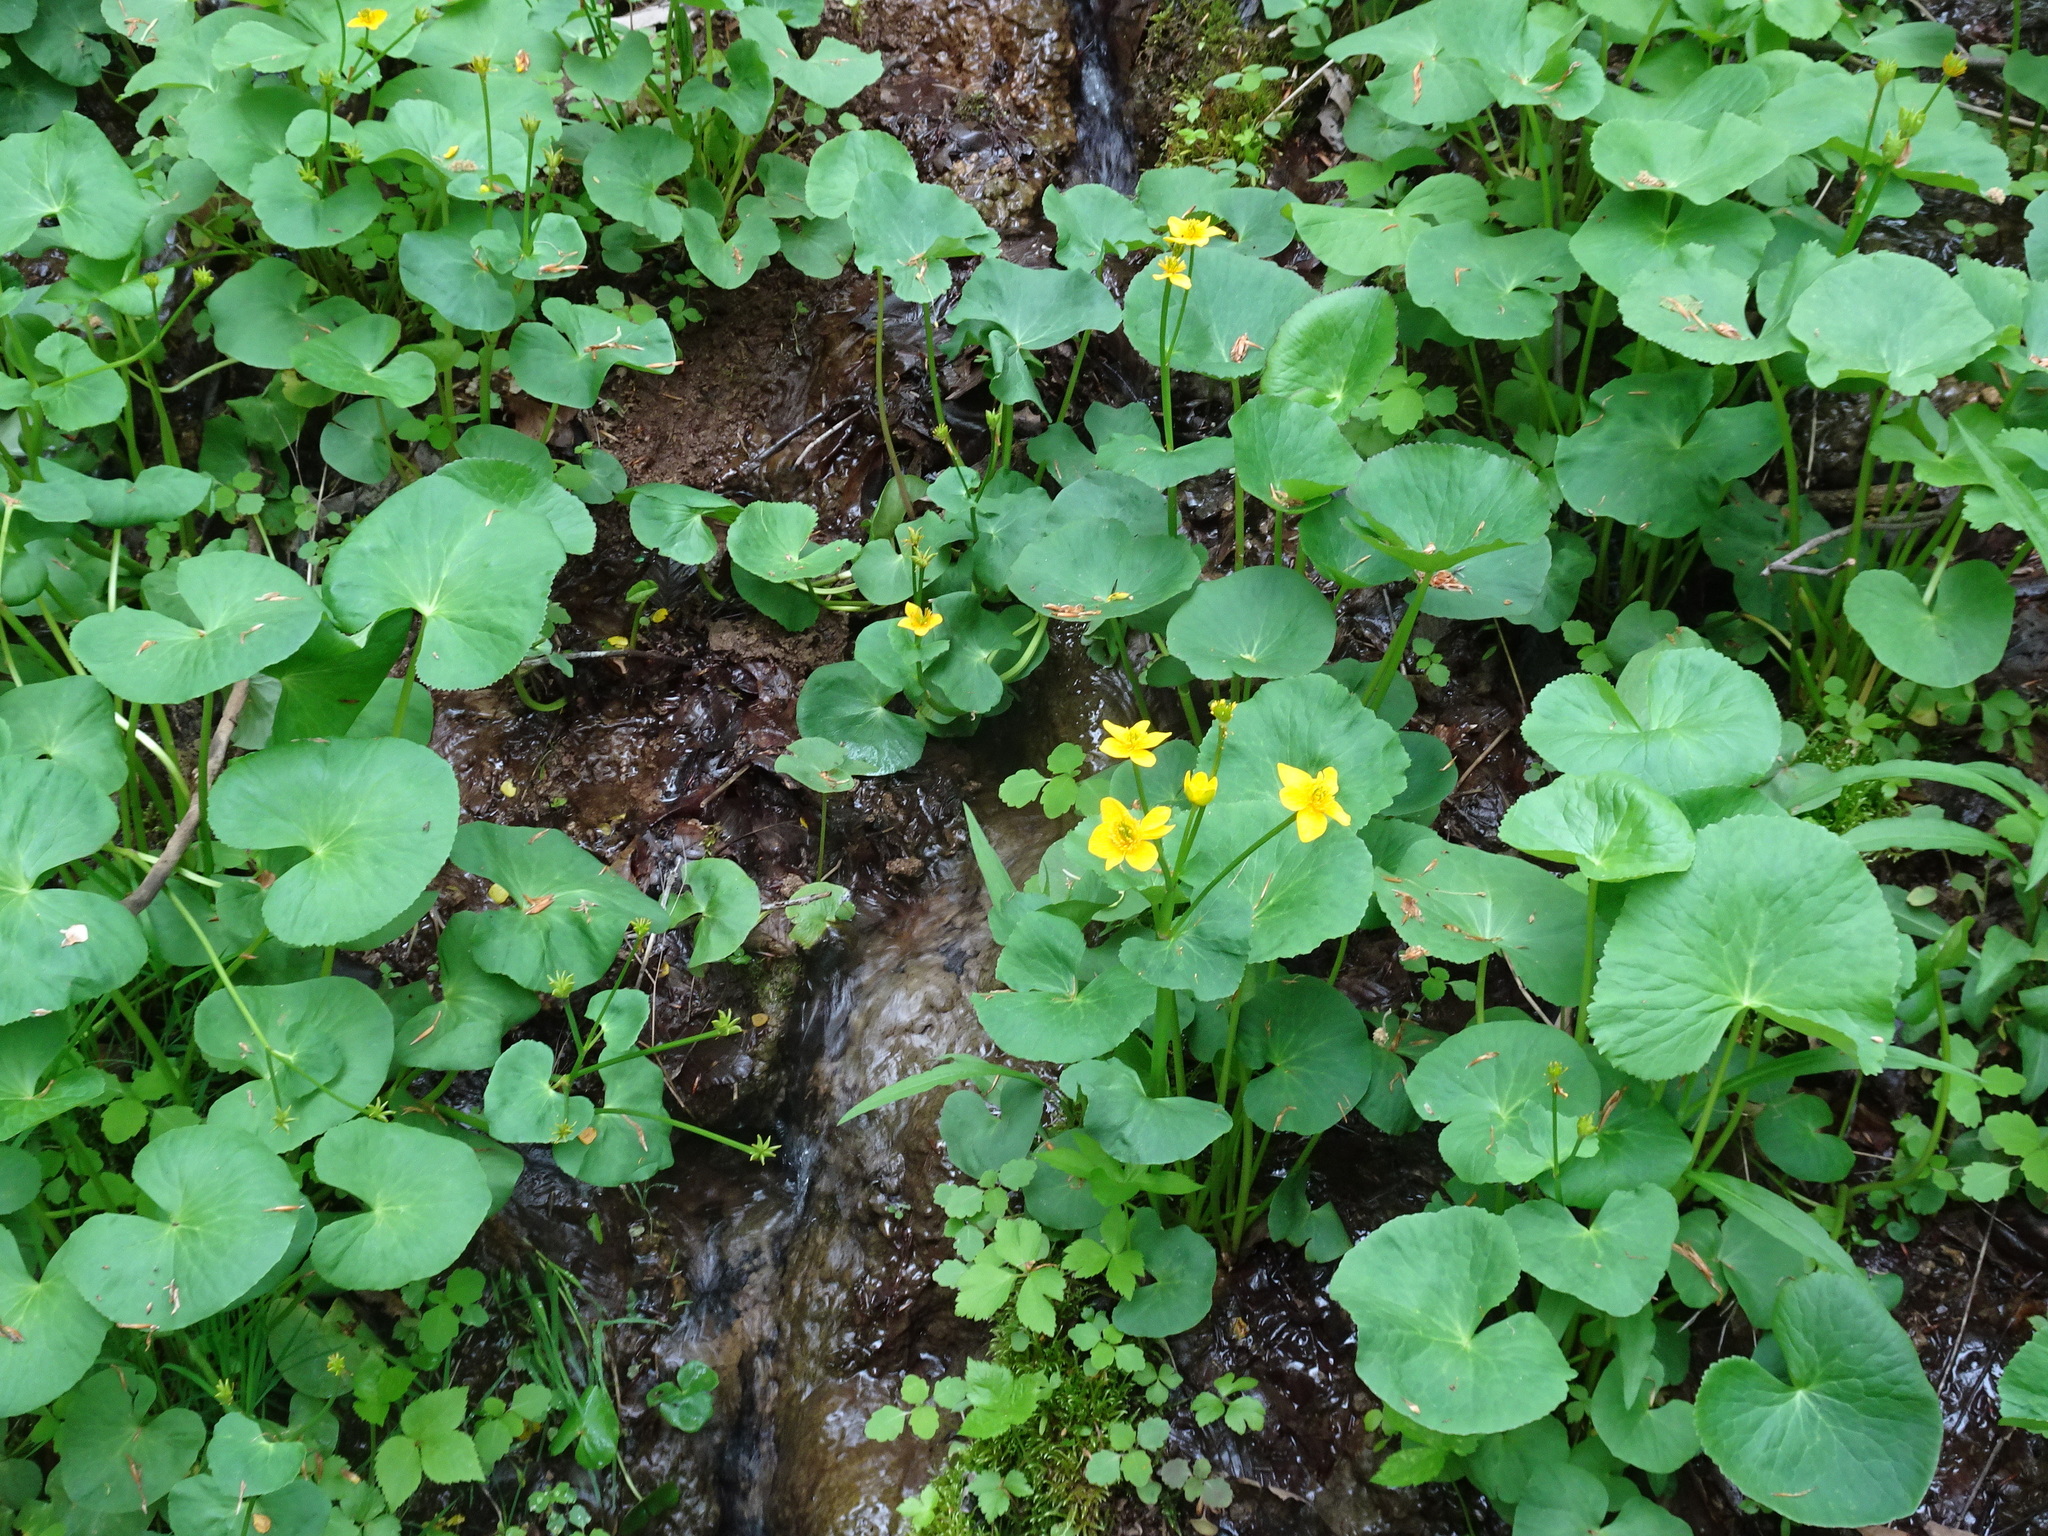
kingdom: Plantae
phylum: Tracheophyta
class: Magnoliopsida
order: Ranunculales
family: Ranunculaceae
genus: Caltha
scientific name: Caltha palustris
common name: Marsh marigold
